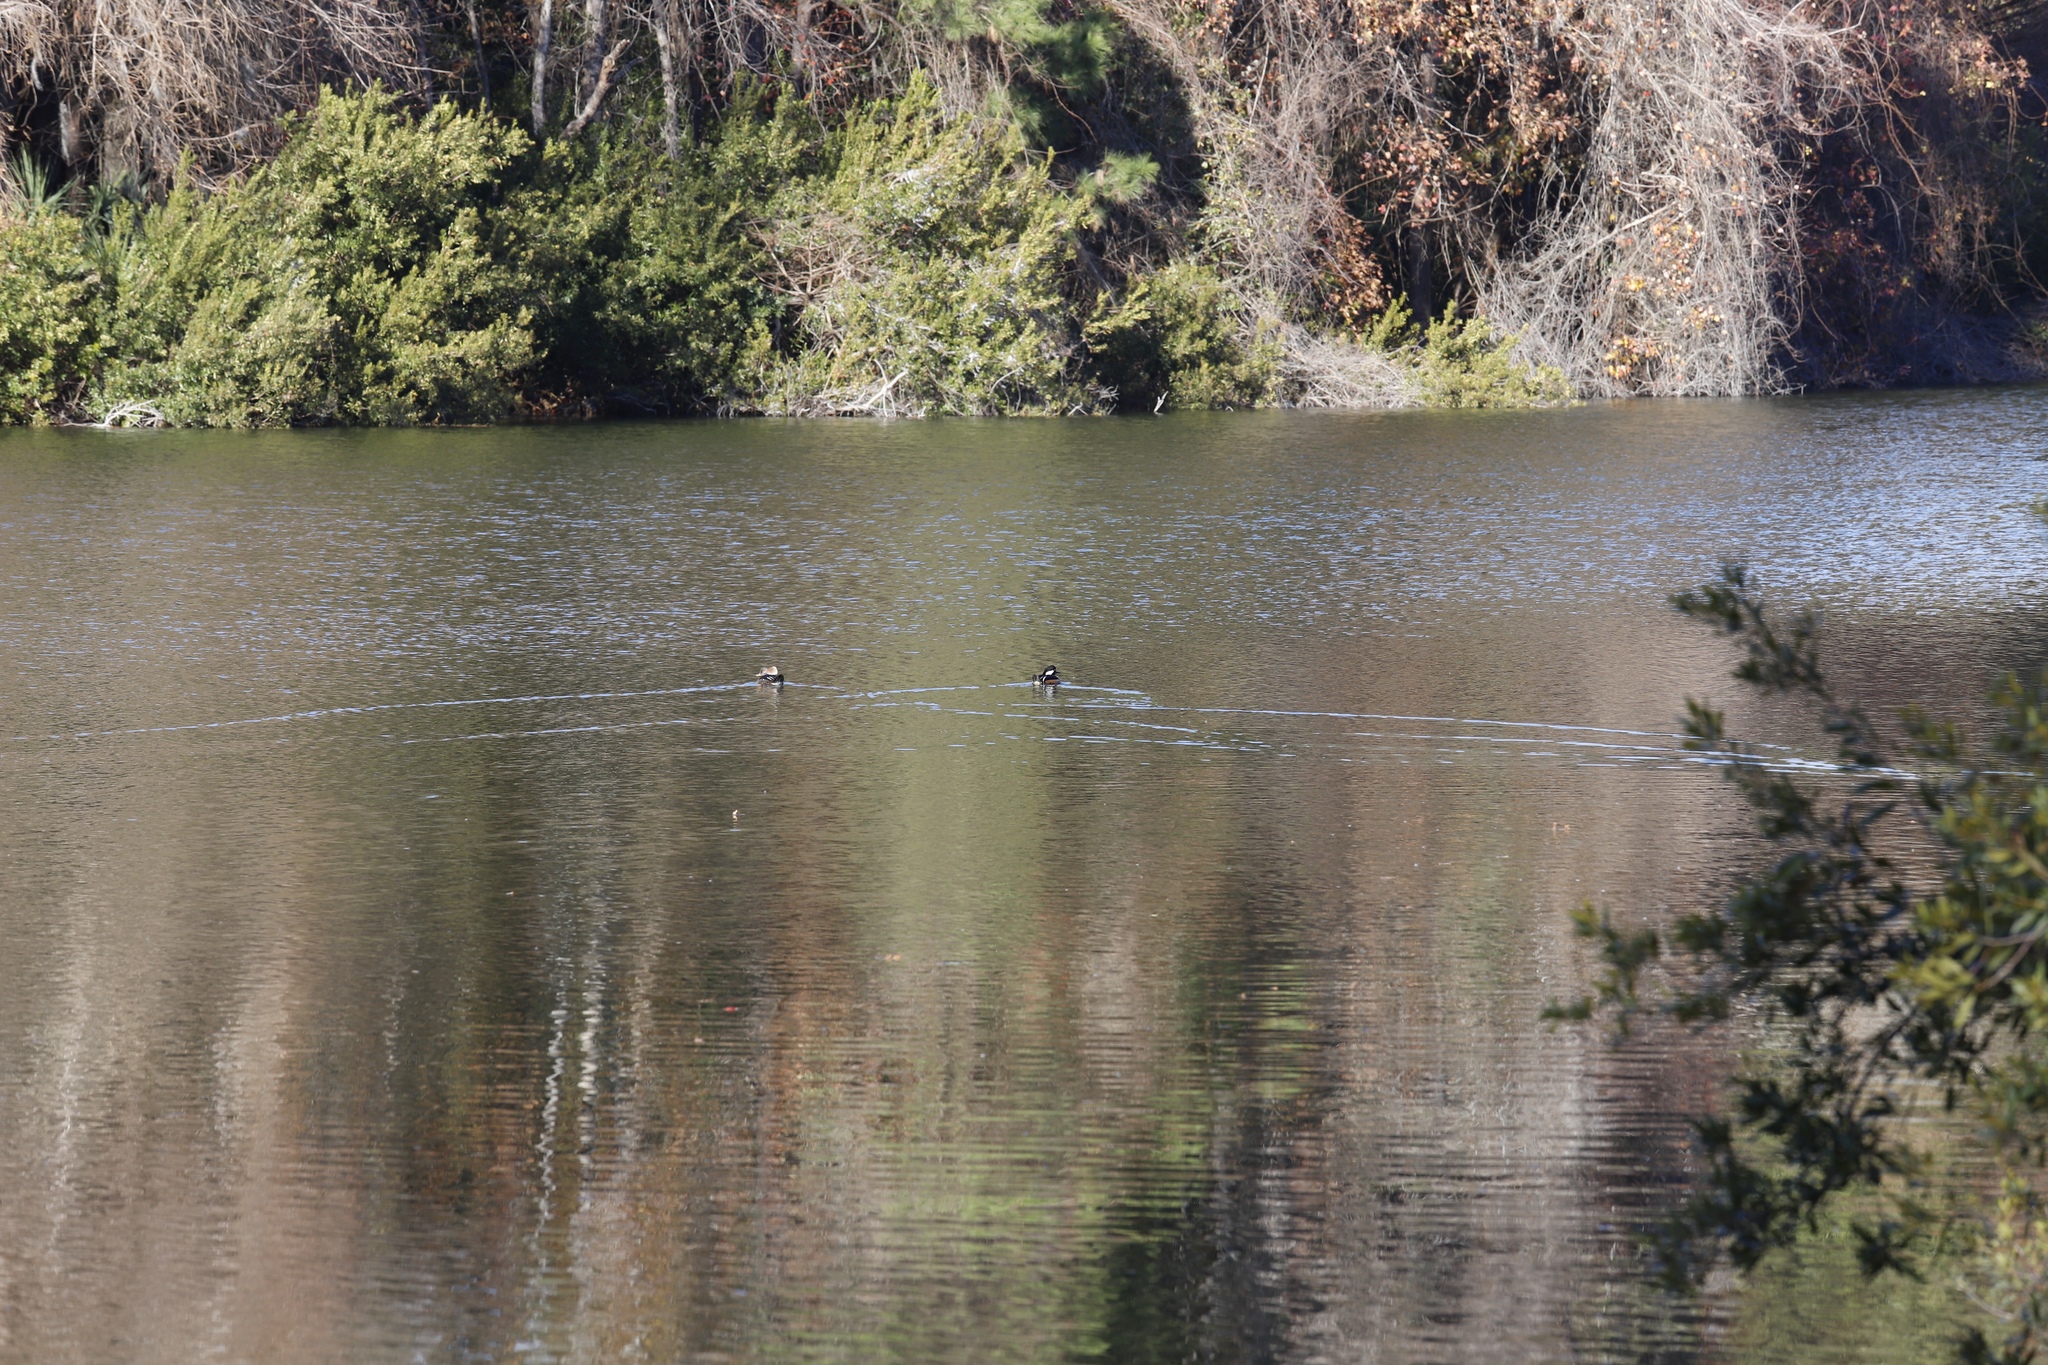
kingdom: Animalia
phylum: Chordata
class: Aves
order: Anseriformes
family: Anatidae
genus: Lophodytes
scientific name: Lophodytes cucullatus
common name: Hooded merganser
